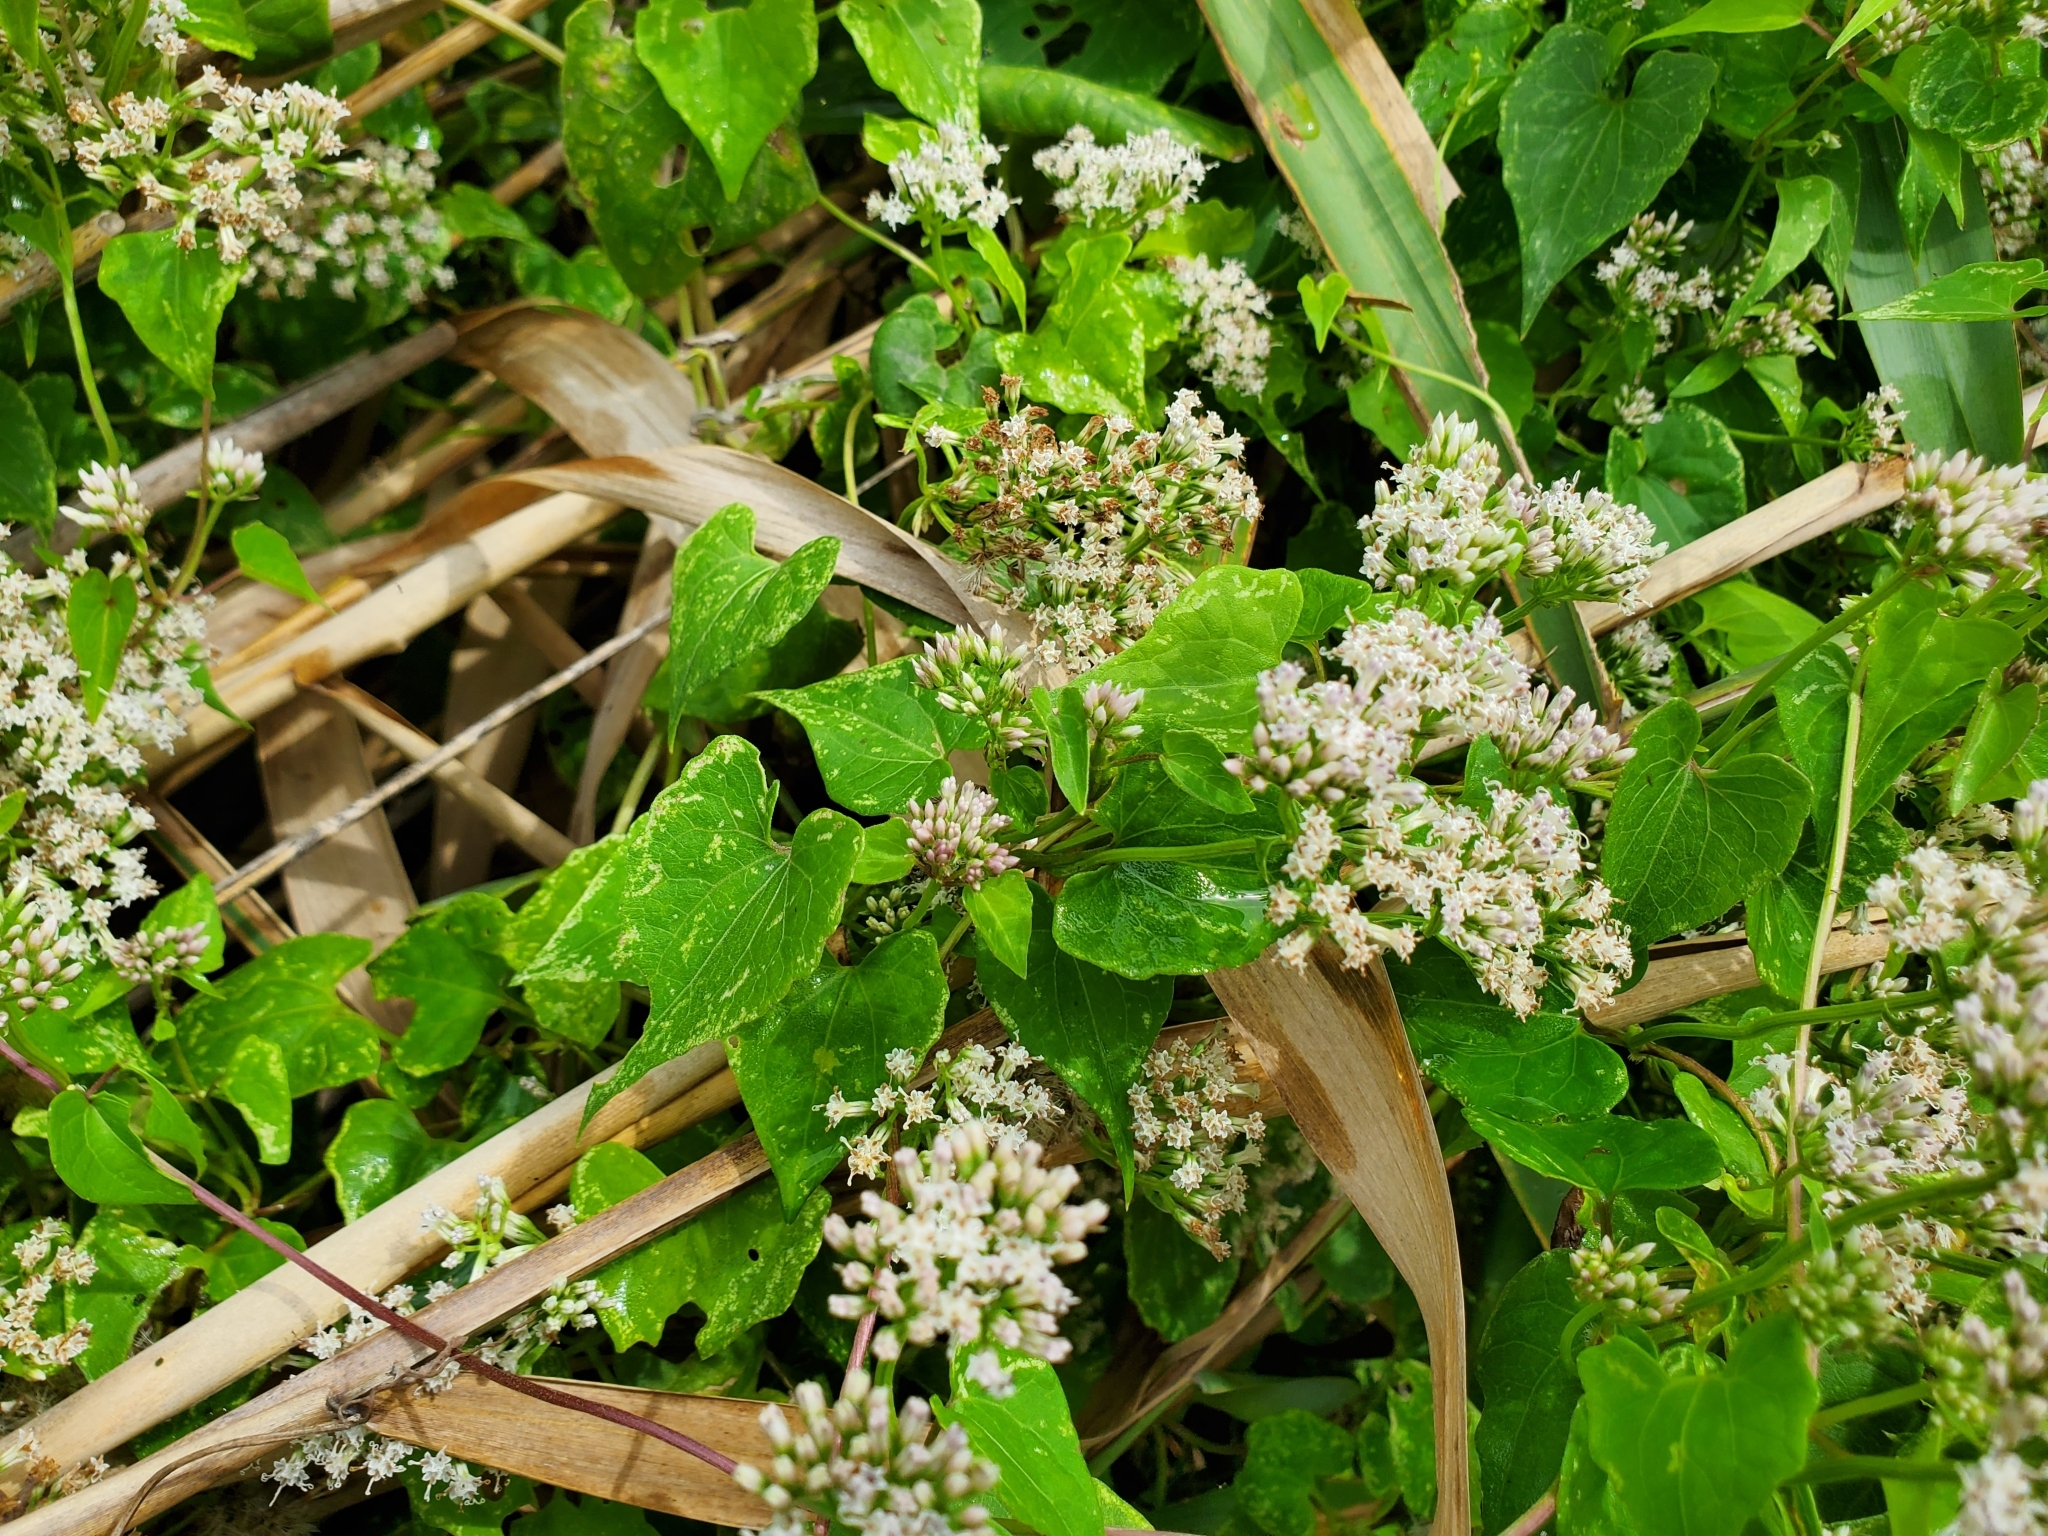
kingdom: Plantae
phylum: Tracheophyta
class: Magnoliopsida
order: Asterales
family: Asteraceae
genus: Mikania
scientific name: Mikania scandens
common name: Climbing hempvine
